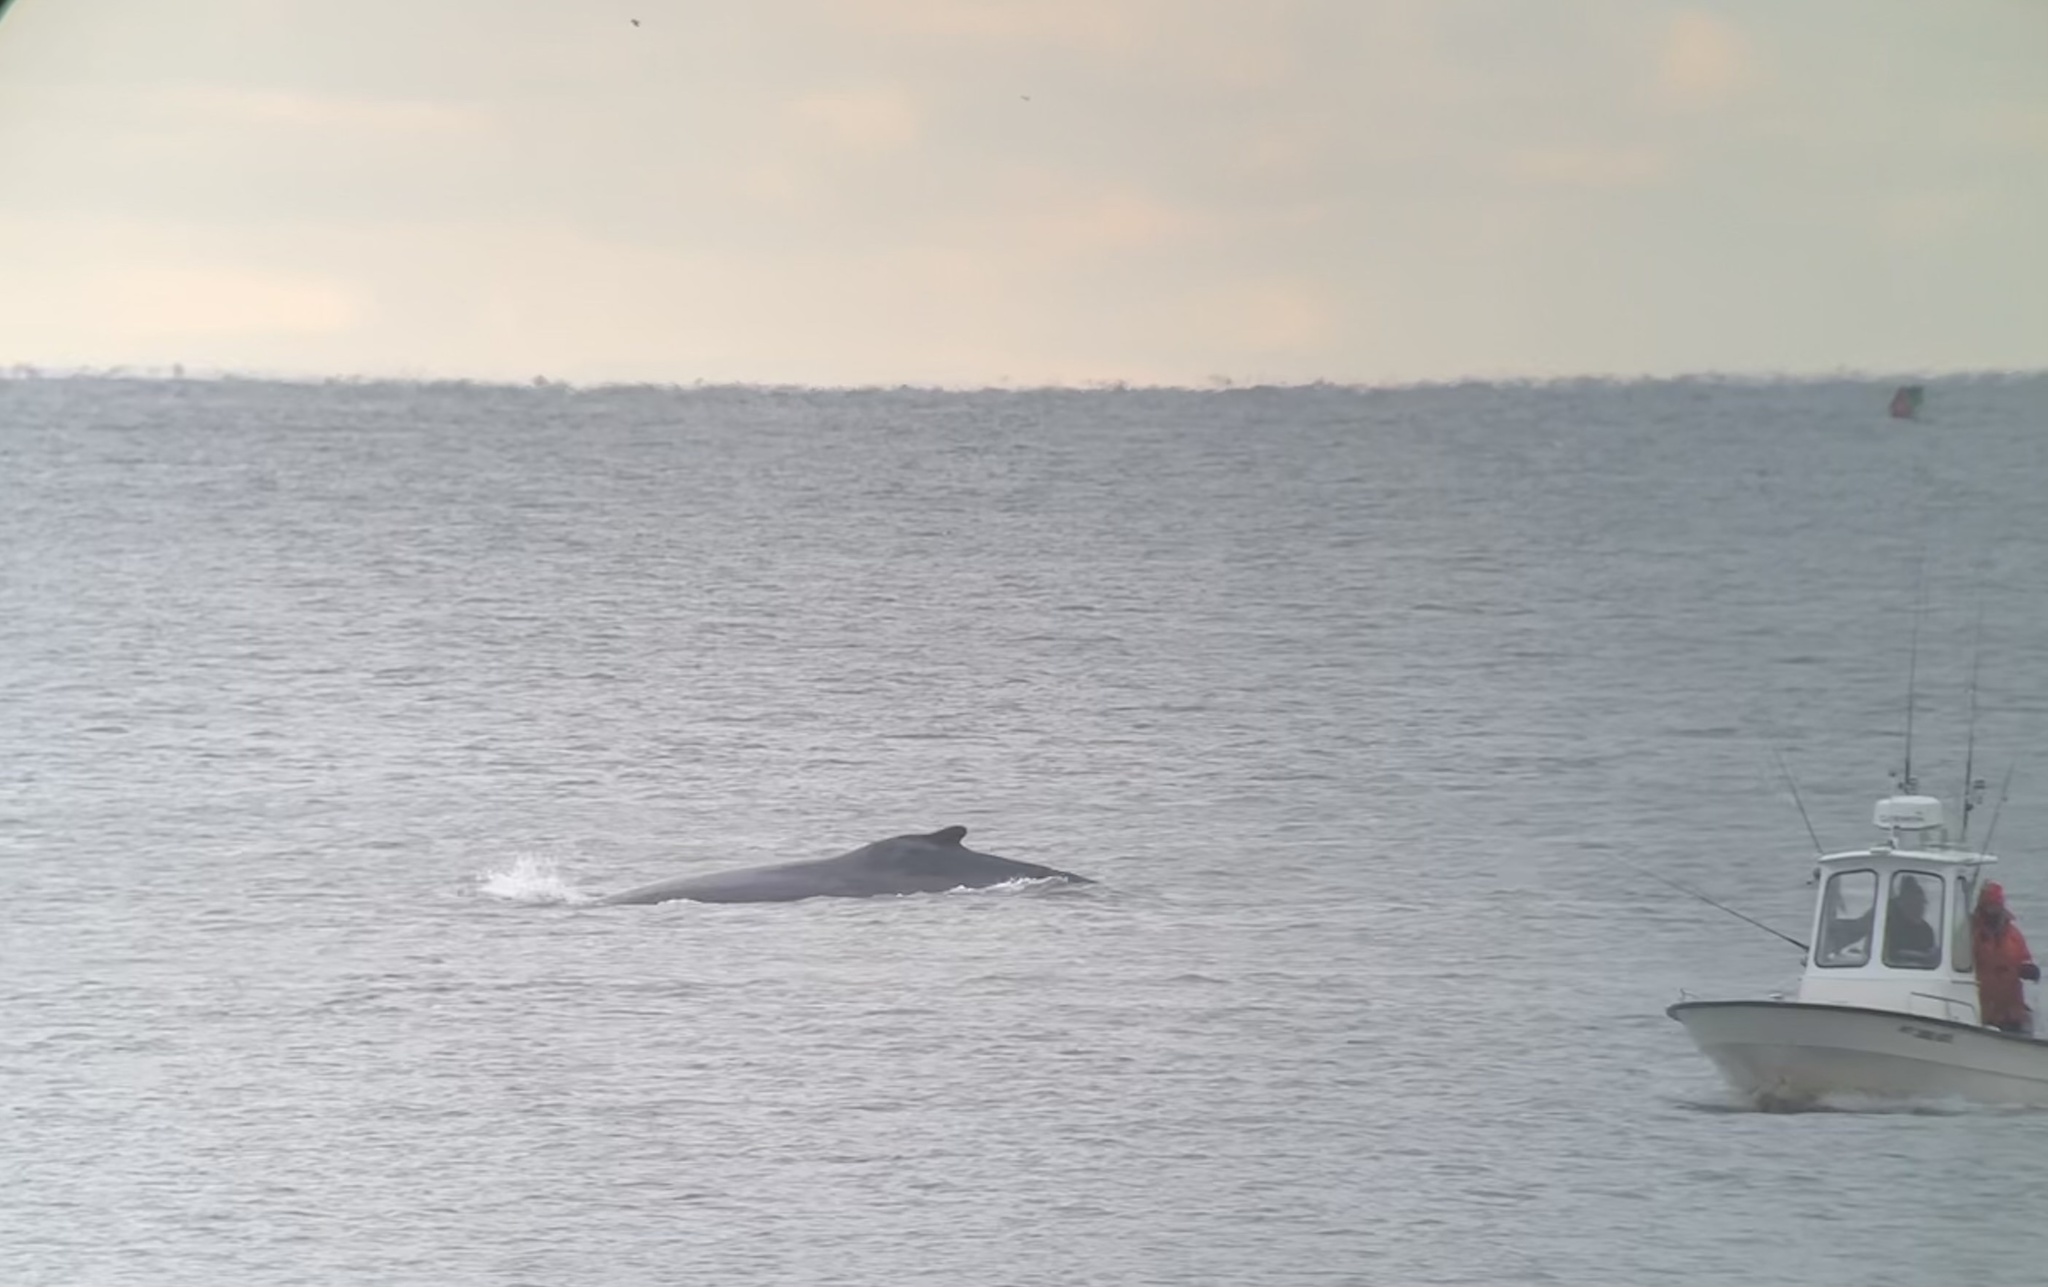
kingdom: Animalia
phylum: Chordata
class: Mammalia
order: Cetacea
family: Balaenopteridae
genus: Megaptera
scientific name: Megaptera novaeangliae
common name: Humpback whale
